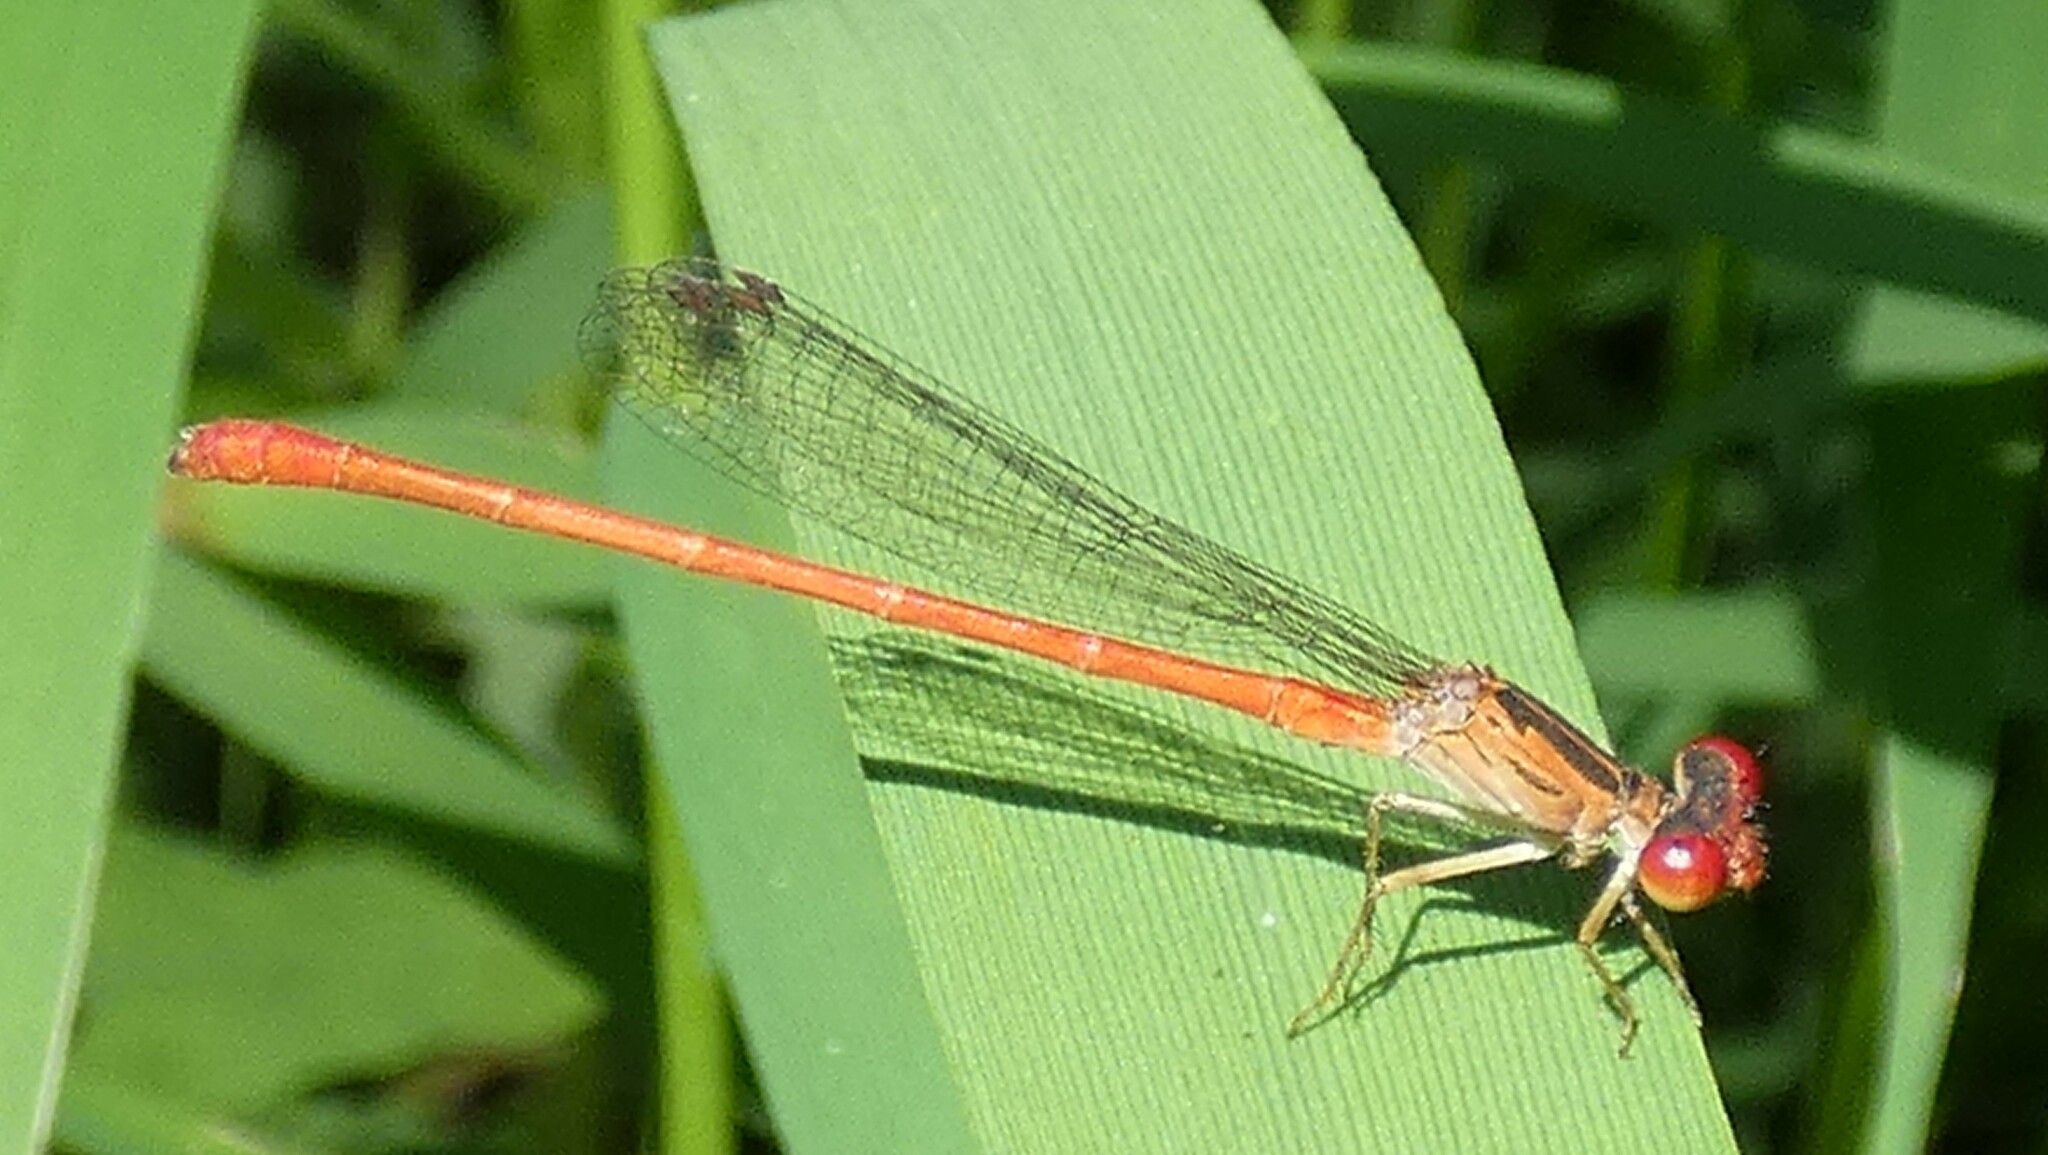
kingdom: Animalia
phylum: Arthropoda
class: Insecta
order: Odonata
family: Coenagrionidae
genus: Telebasis
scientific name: Telebasis byersi
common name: Duckweed firetail
